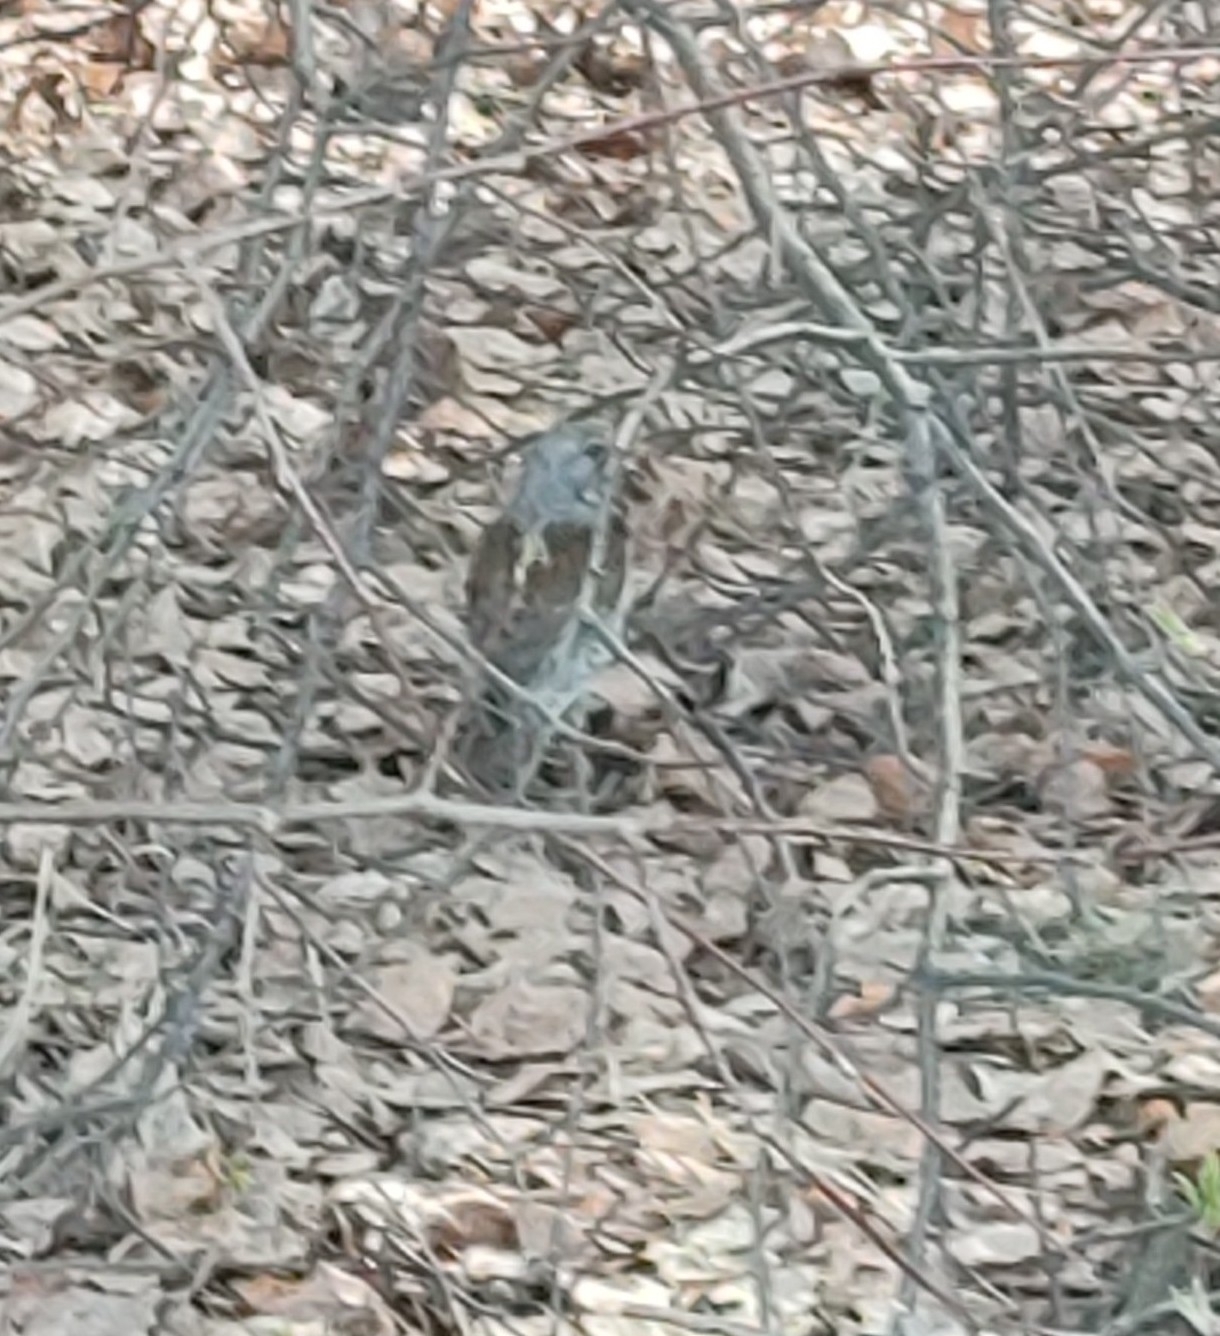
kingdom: Animalia
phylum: Chordata
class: Aves
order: Passeriformes
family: Turdidae
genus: Turdus
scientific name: Turdus pilaris
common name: Fieldfare
